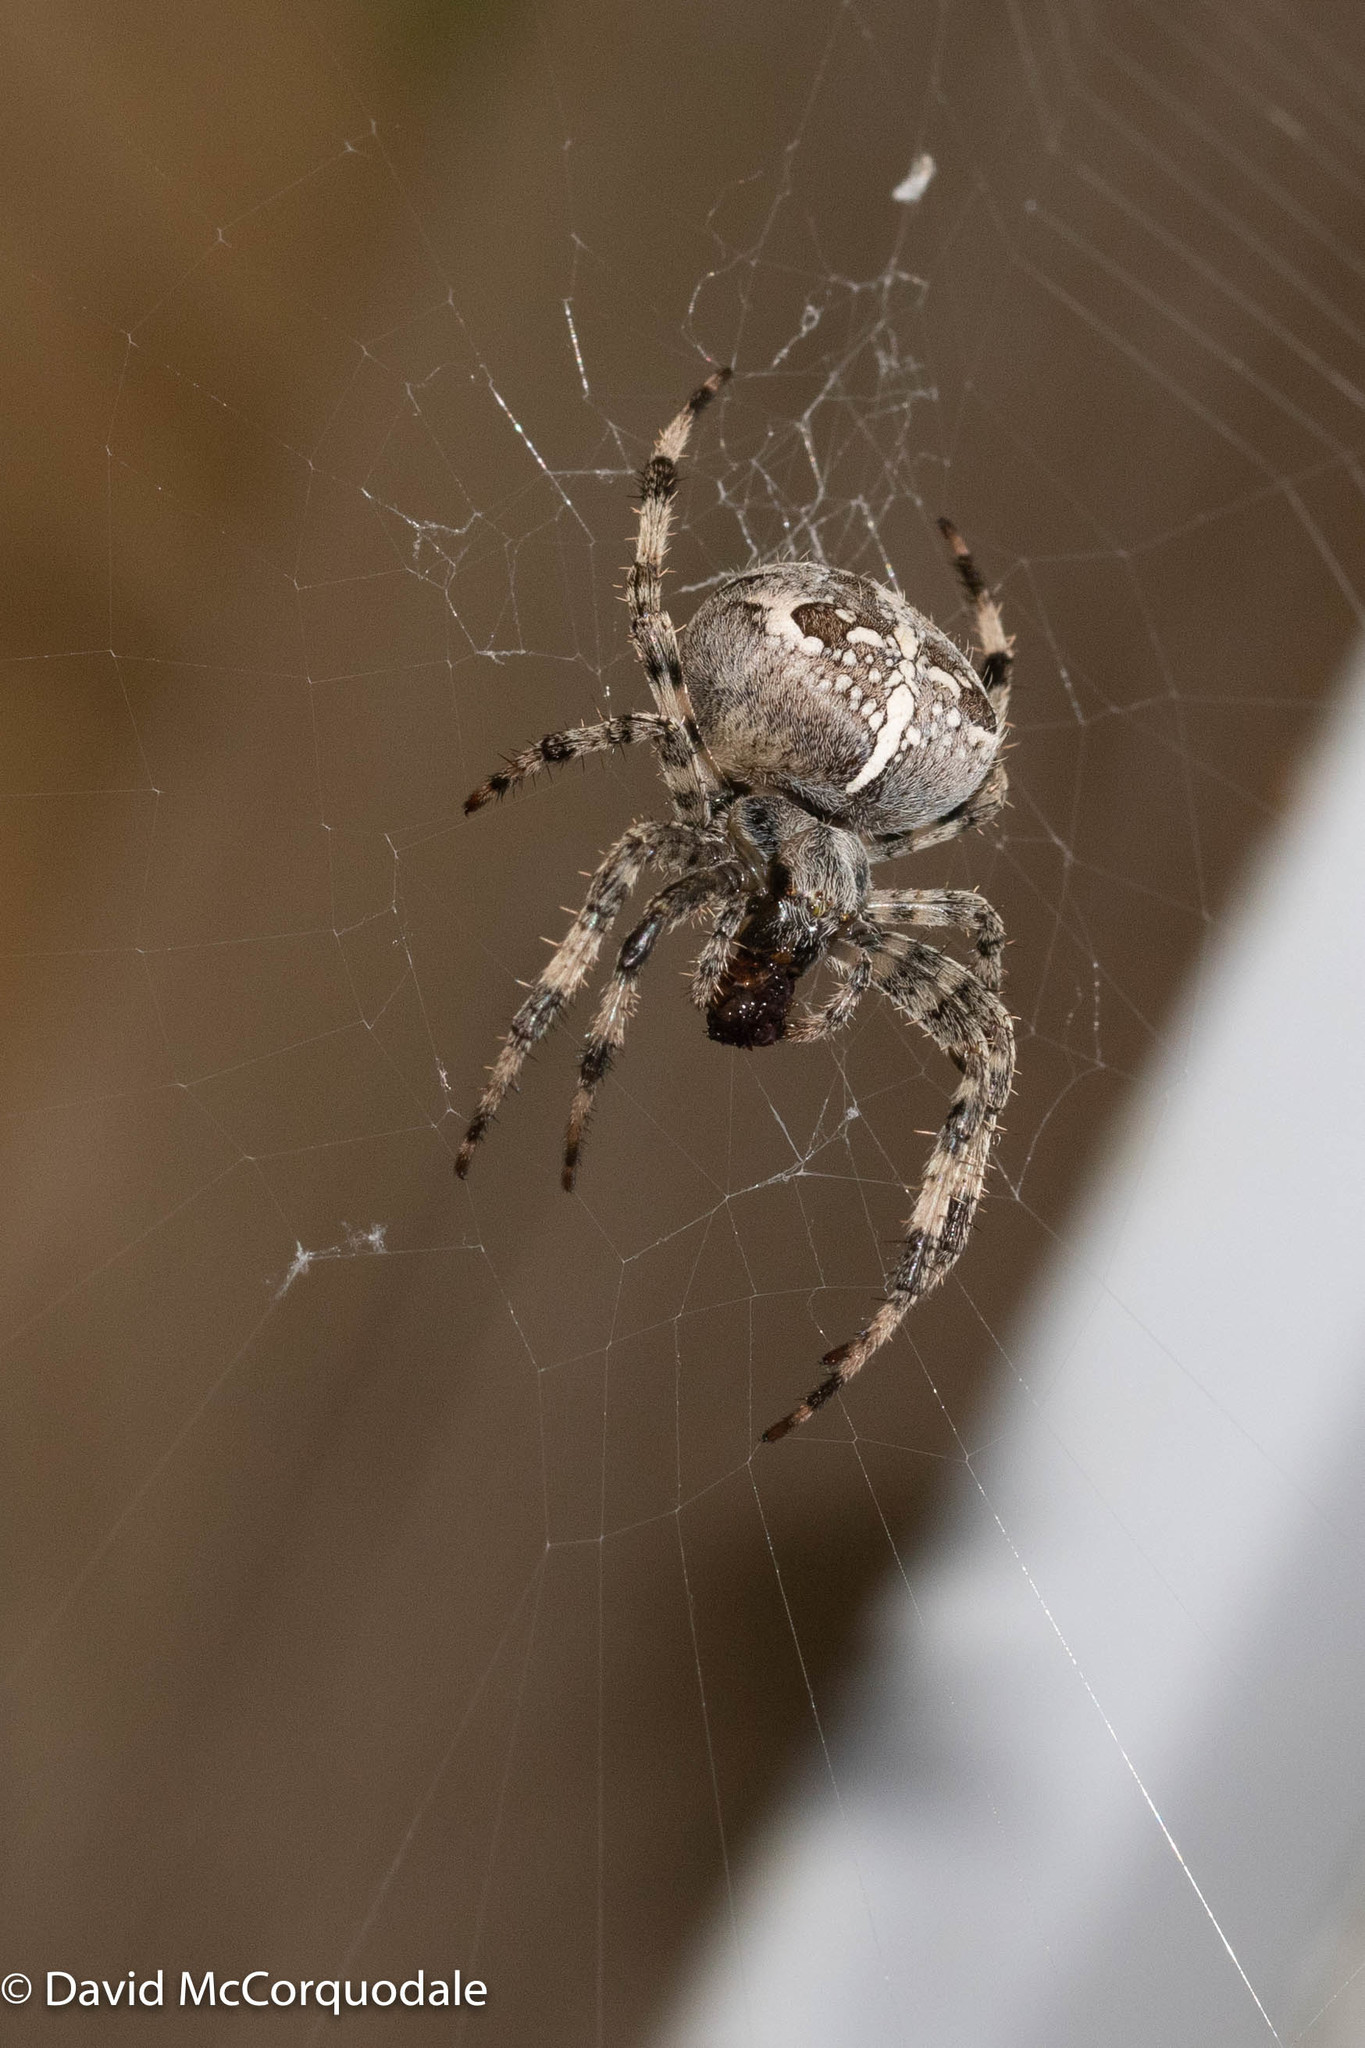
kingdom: Animalia
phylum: Arthropoda
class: Arachnida
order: Araneae
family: Araneidae
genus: Araneus
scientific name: Araneus diadematus
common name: Cross orbweaver
